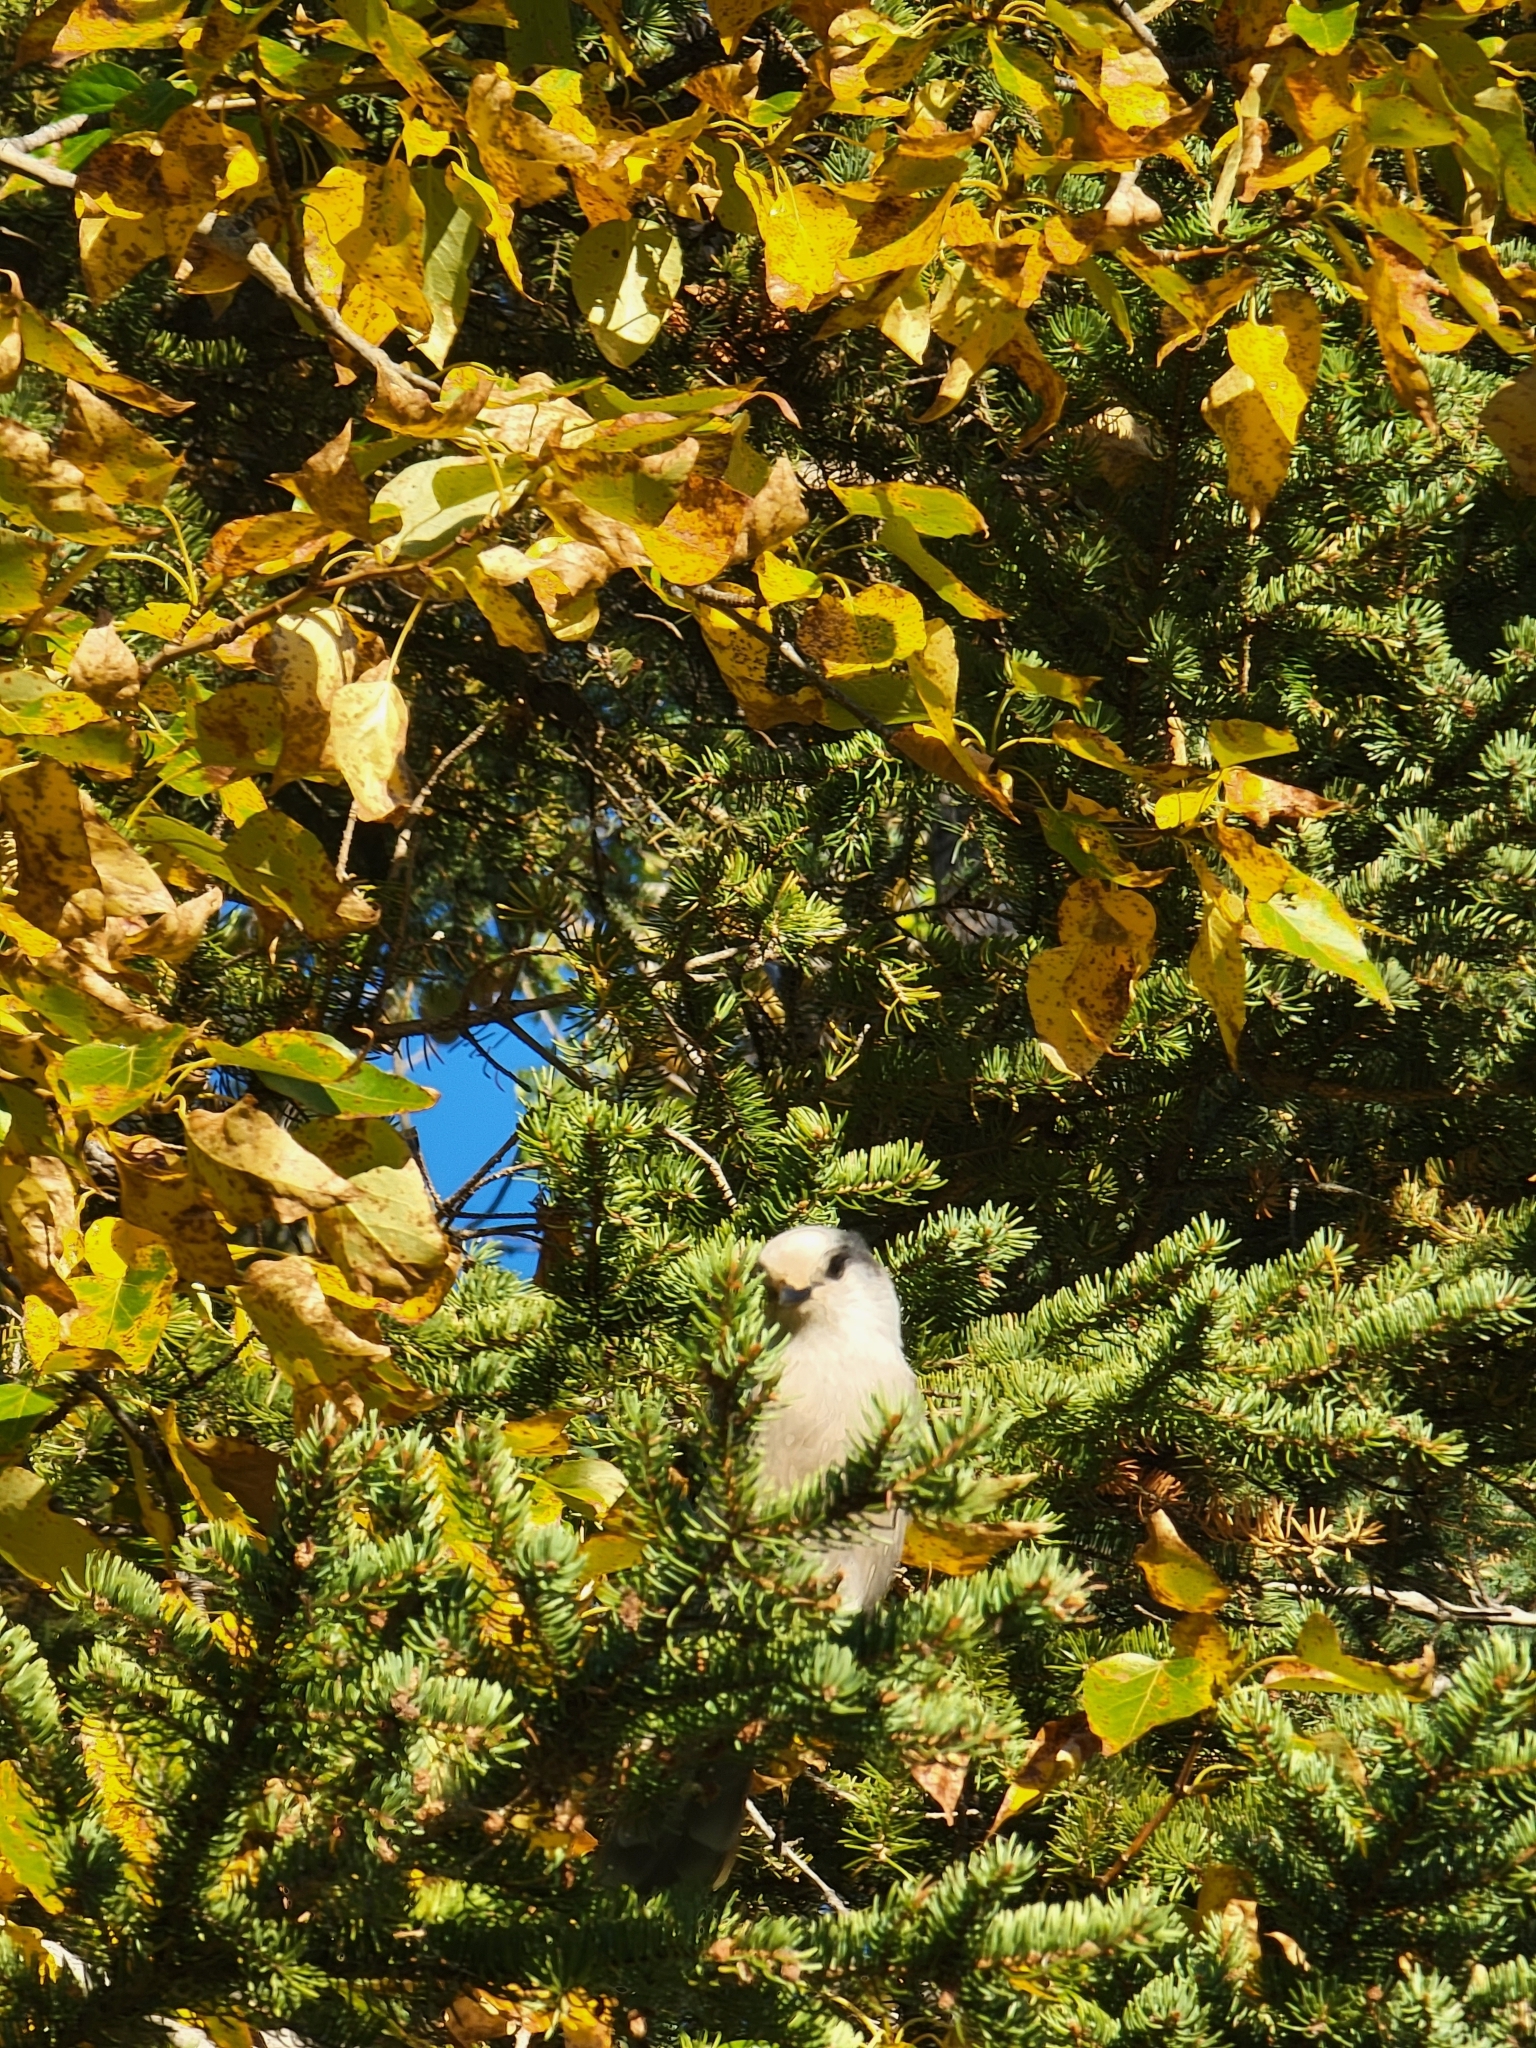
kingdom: Animalia
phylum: Chordata
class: Aves
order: Passeriformes
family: Corvidae
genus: Perisoreus
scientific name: Perisoreus canadensis
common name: Gray jay
